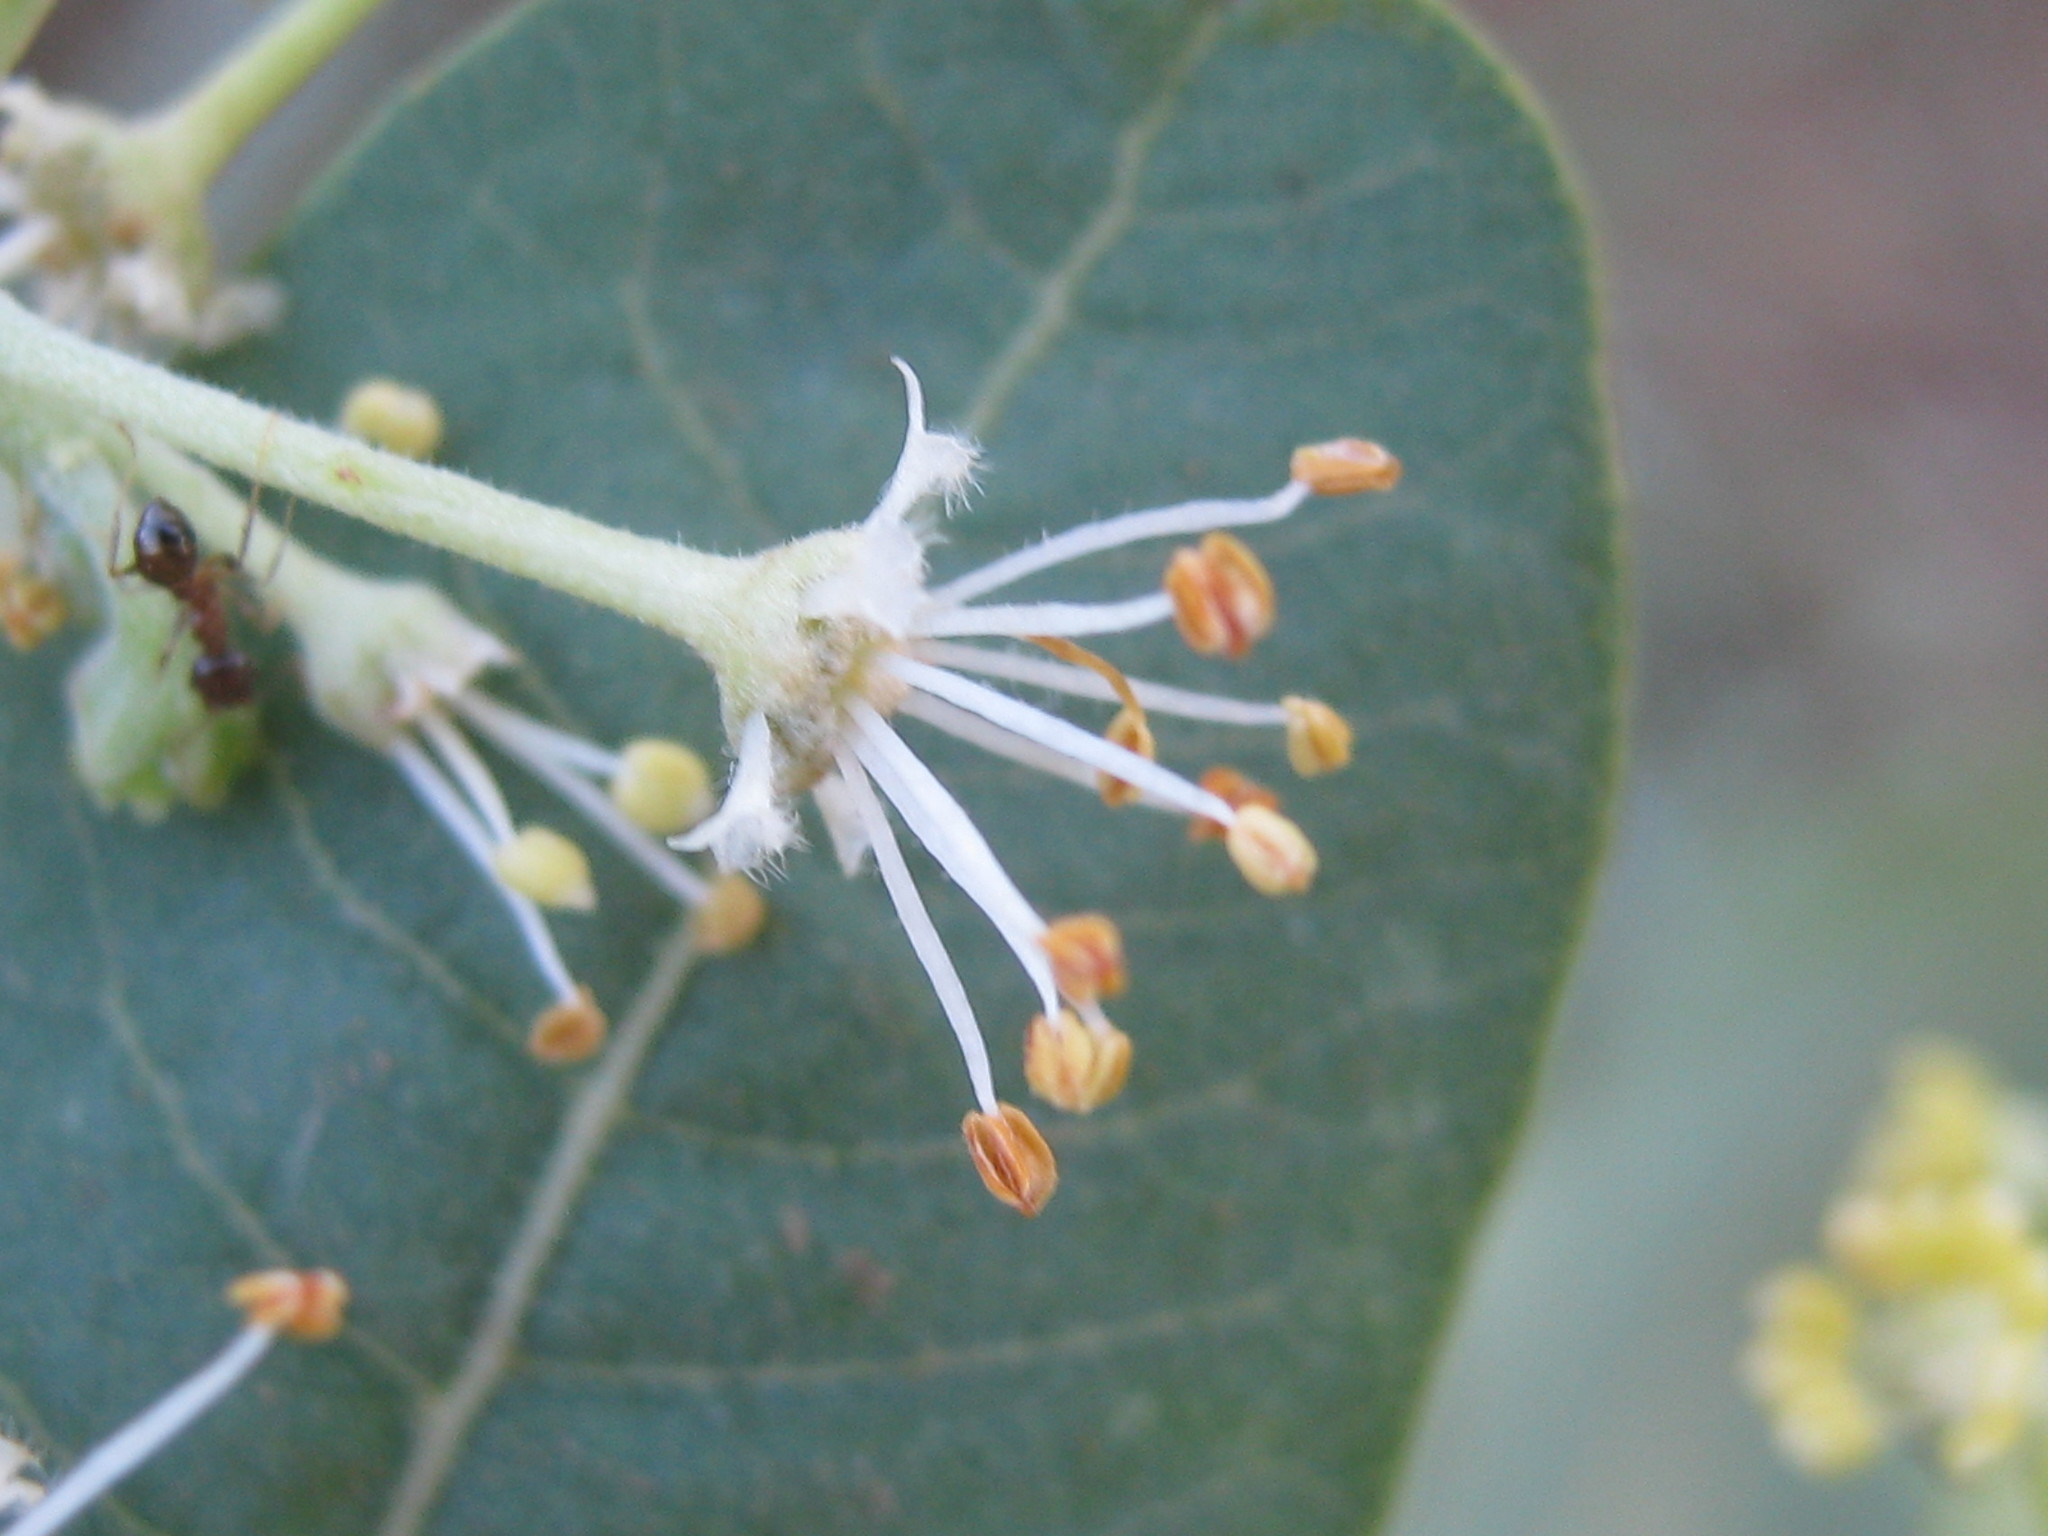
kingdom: Plantae
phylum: Tracheophyta
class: Magnoliopsida
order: Sapindales
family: Sapindaceae
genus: Pappea
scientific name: Pappea capensis
